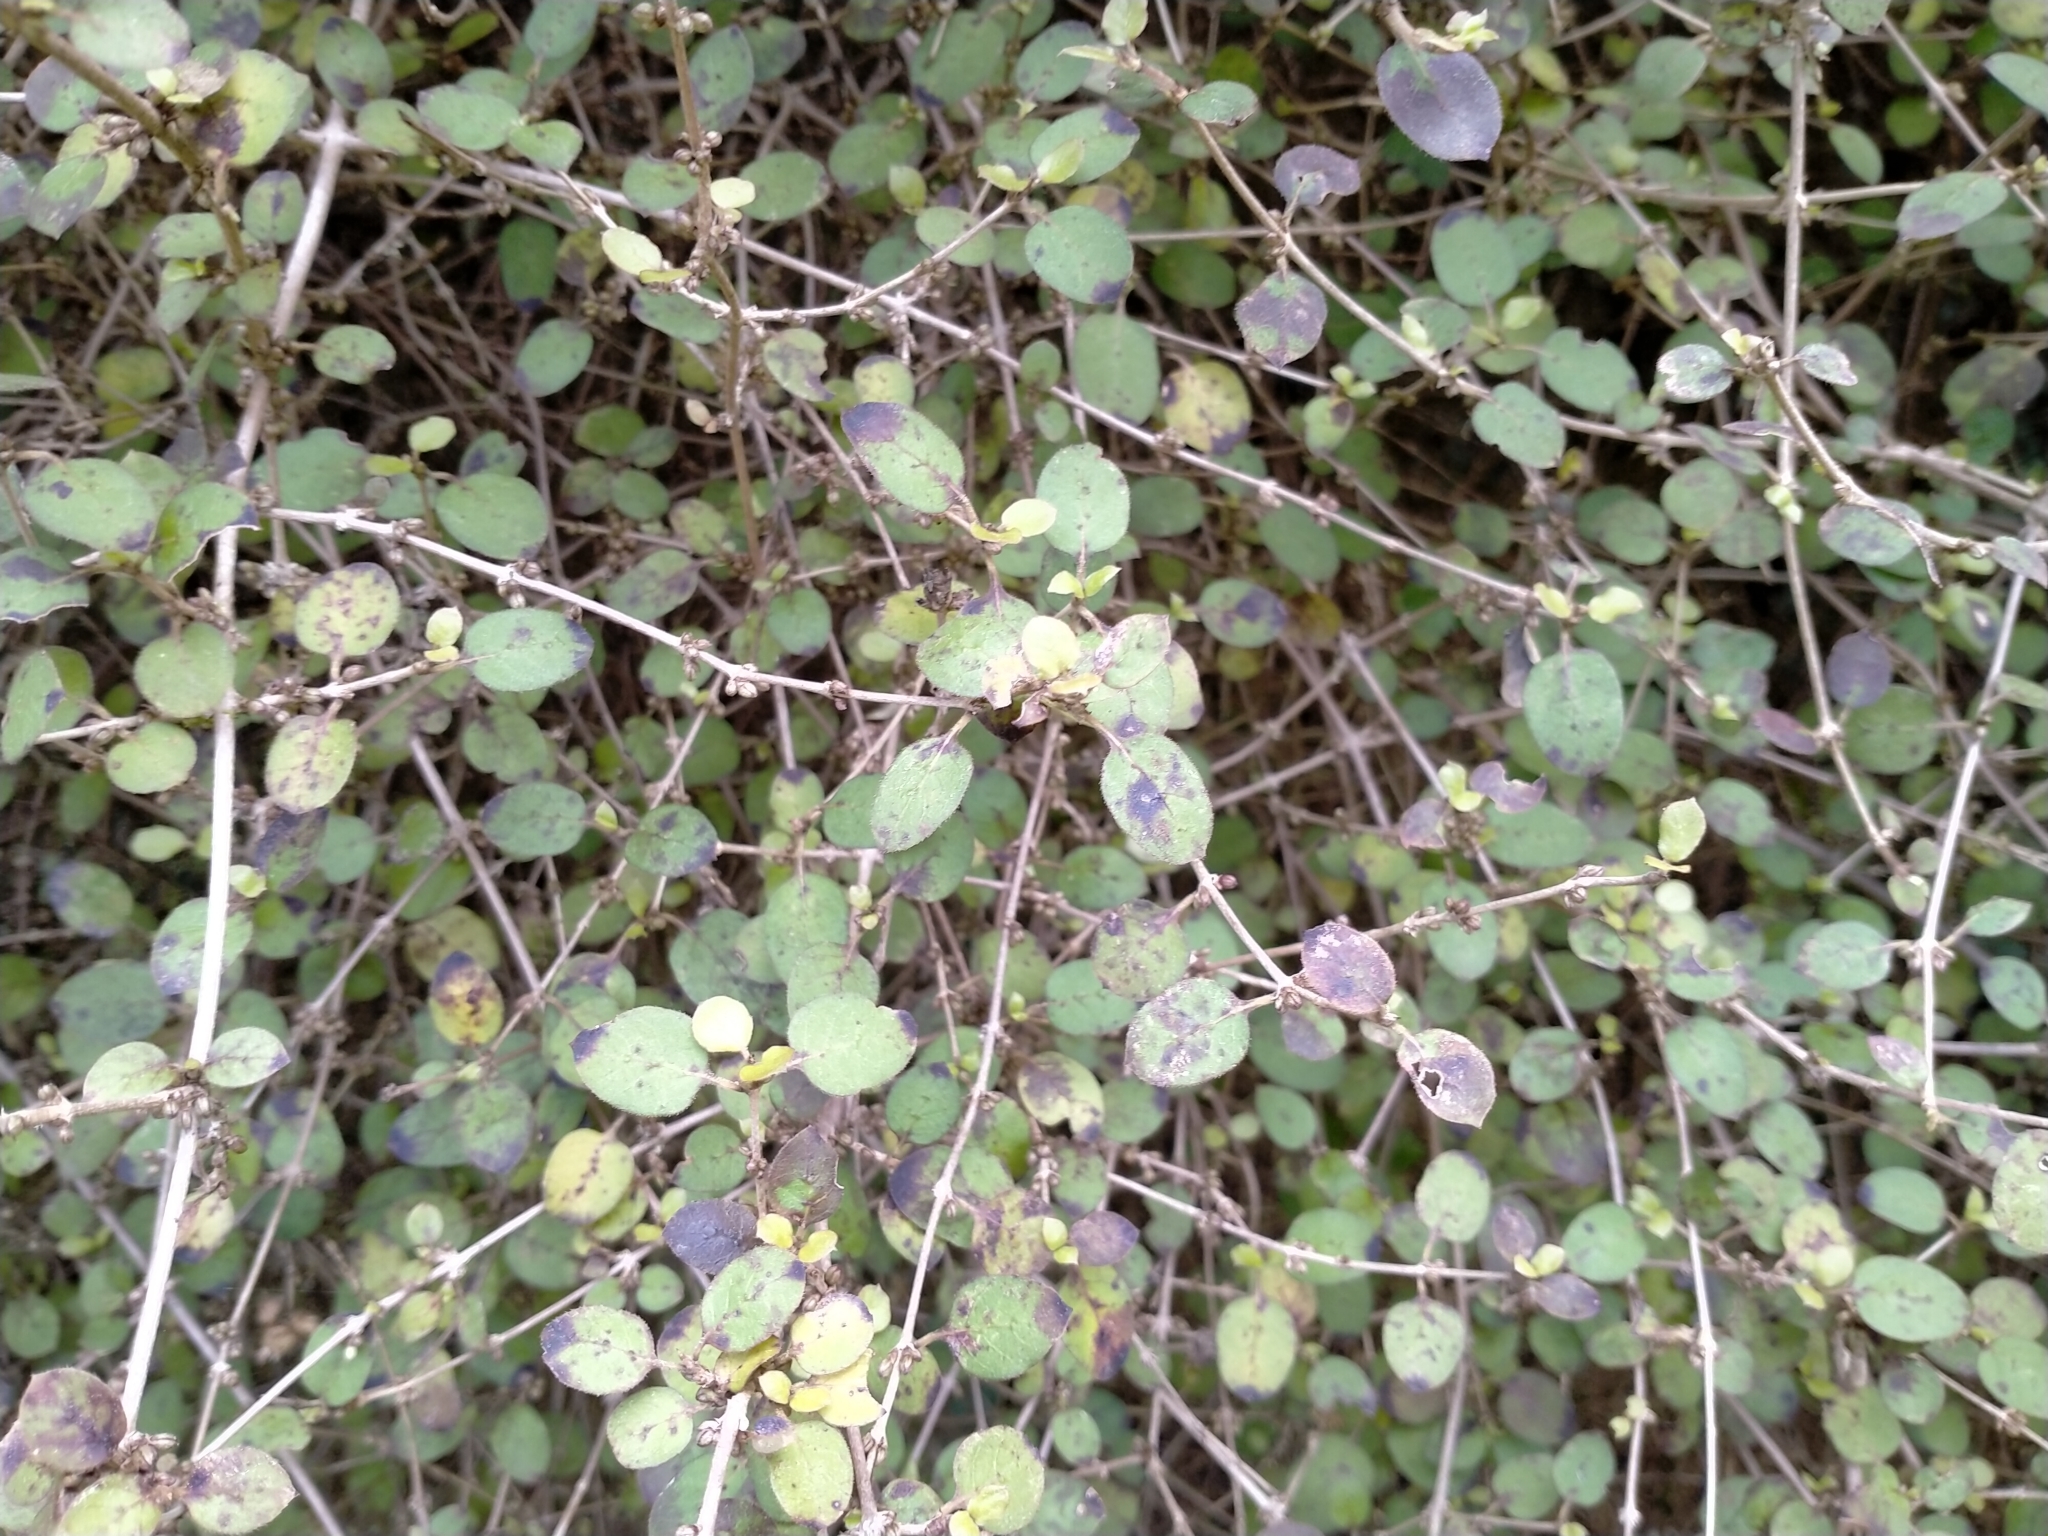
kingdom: Plantae
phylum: Tracheophyta
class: Magnoliopsida
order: Gentianales
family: Rubiaceae
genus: Coprosma
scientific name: Coprosma rotundifolia
